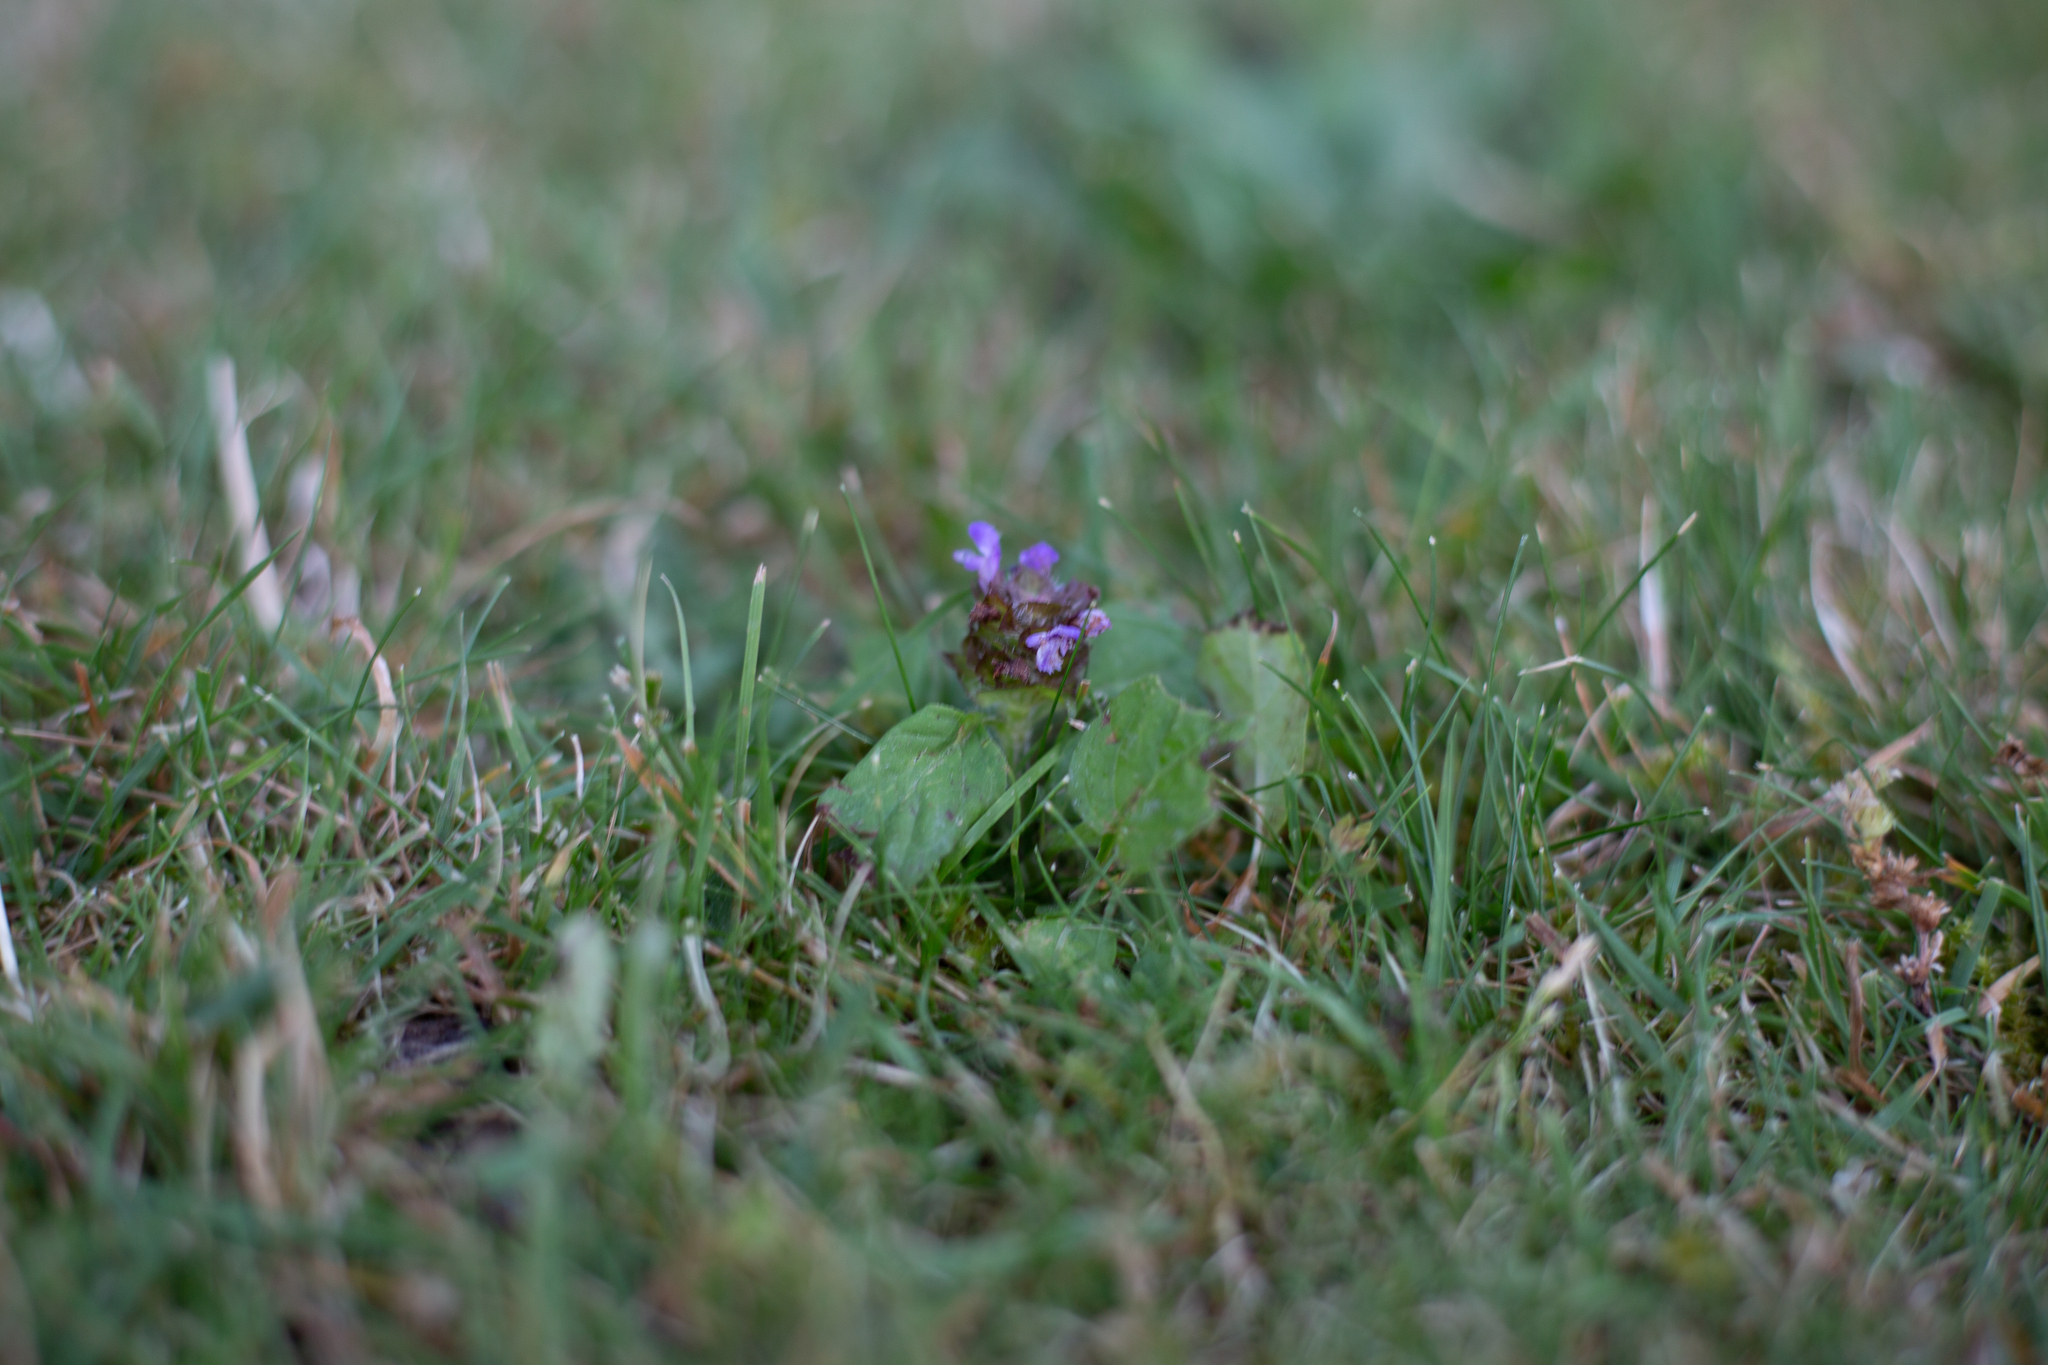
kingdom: Plantae
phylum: Tracheophyta
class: Magnoliopsida
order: Lamiales
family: Lamiaceae
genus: Prunella
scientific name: Prunella vulgaris
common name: Heal-all
